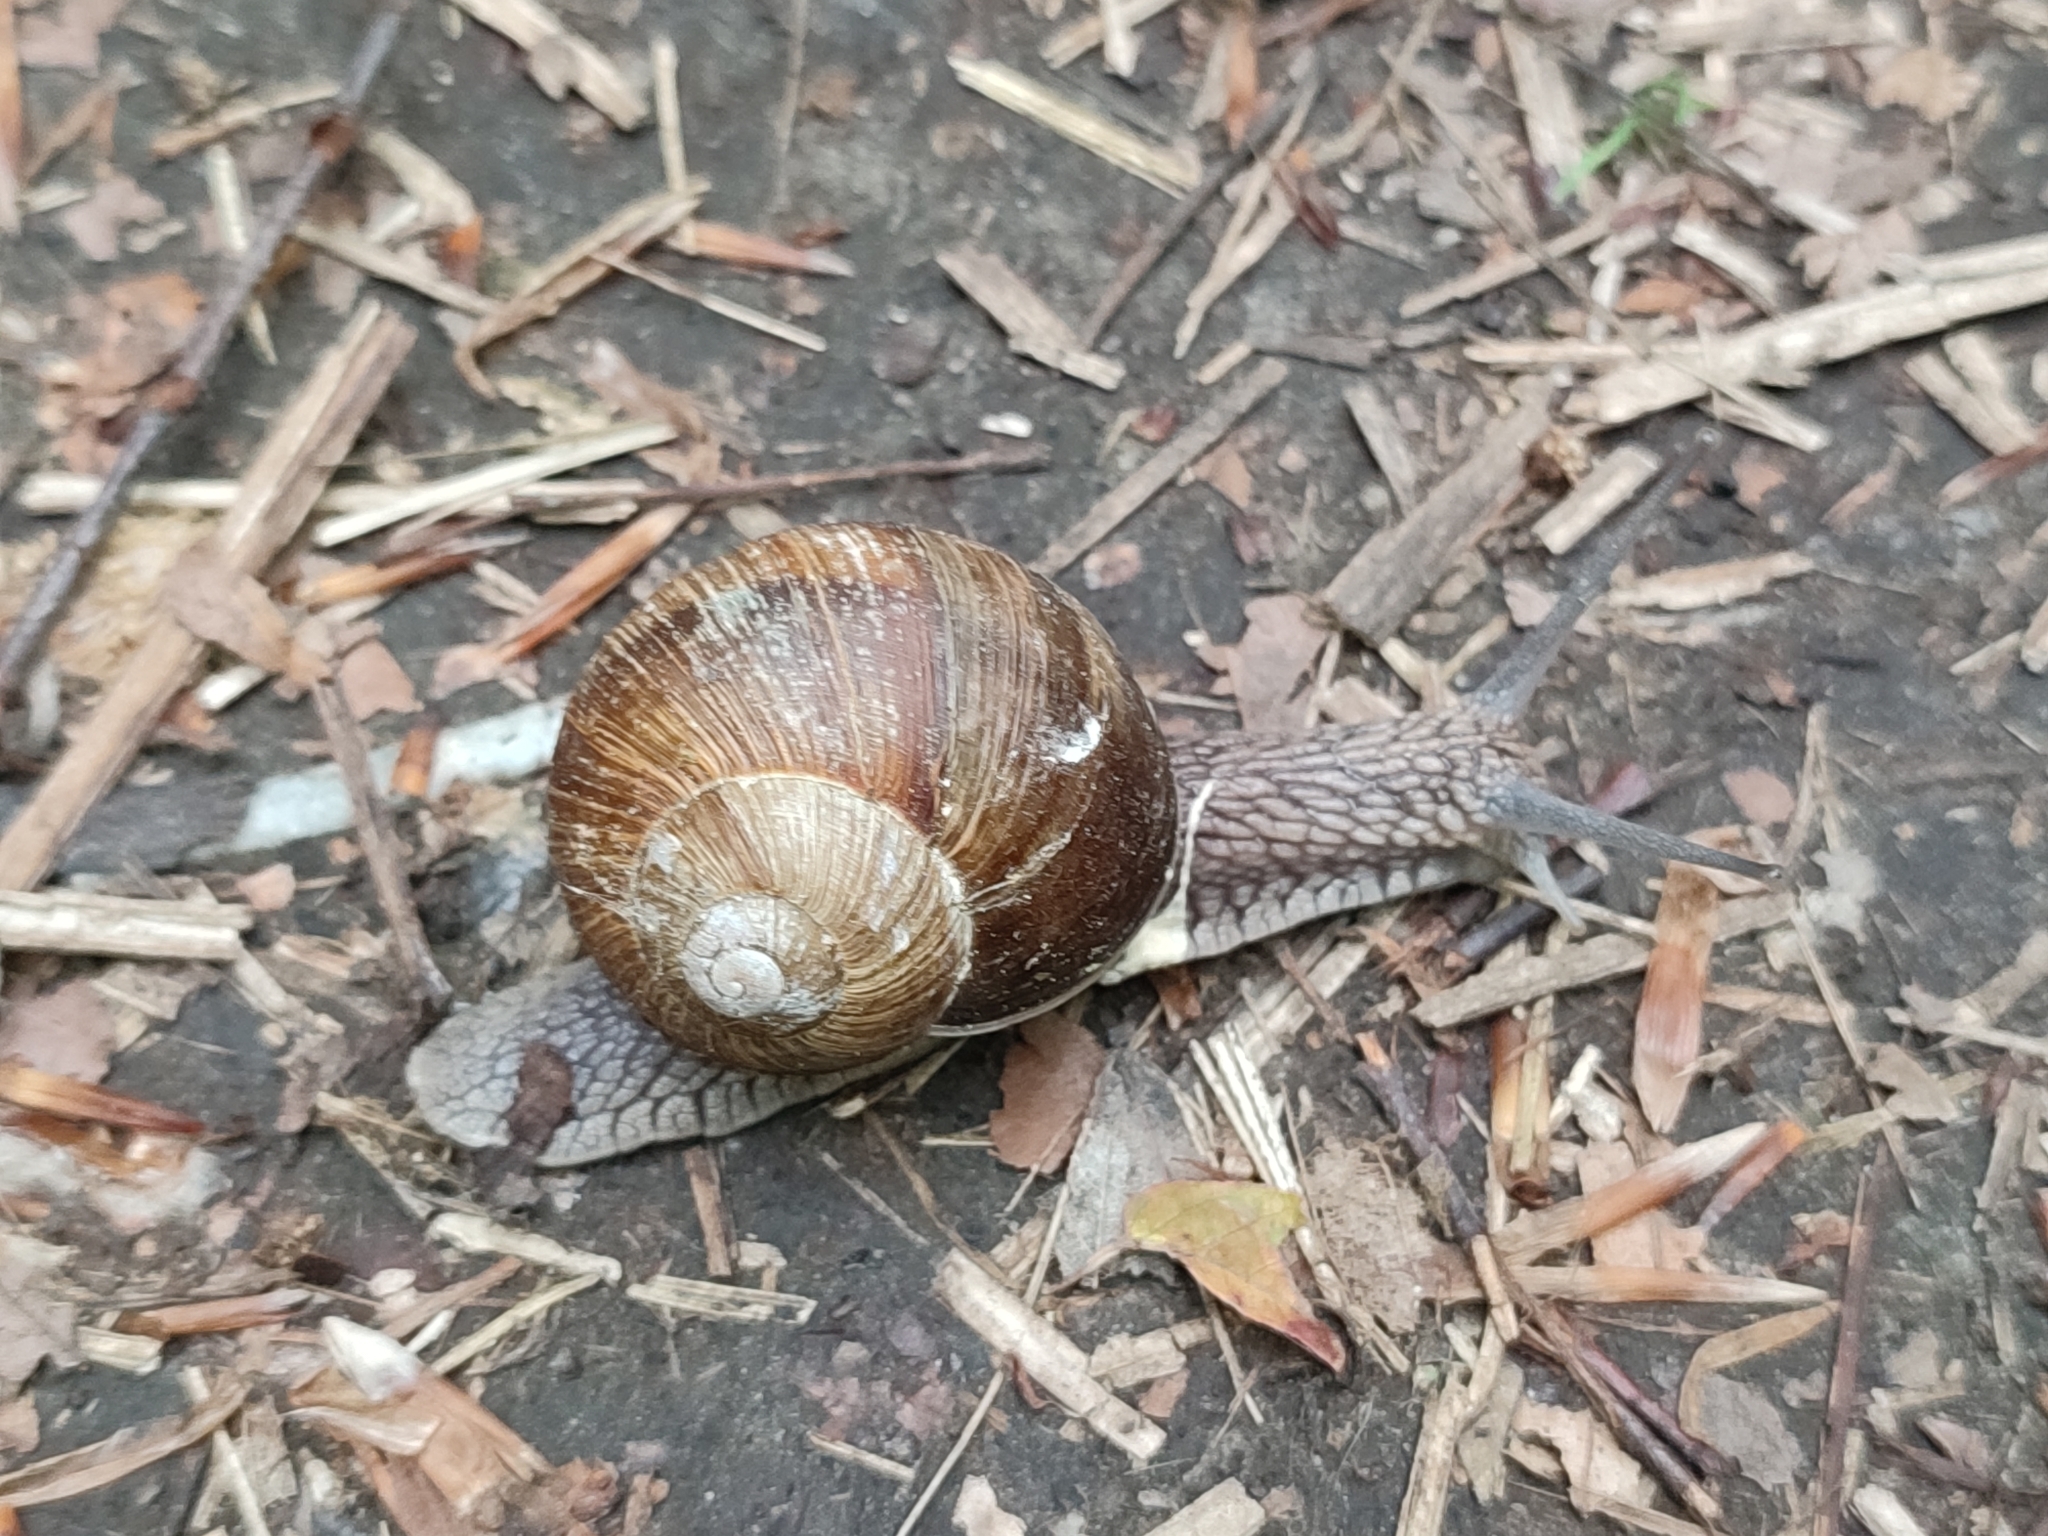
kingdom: Animalia
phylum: Mollusca
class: Gastropoda
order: Stylommatophora
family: Helicidae
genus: Helix
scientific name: Helix pomatia
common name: Roman snail
